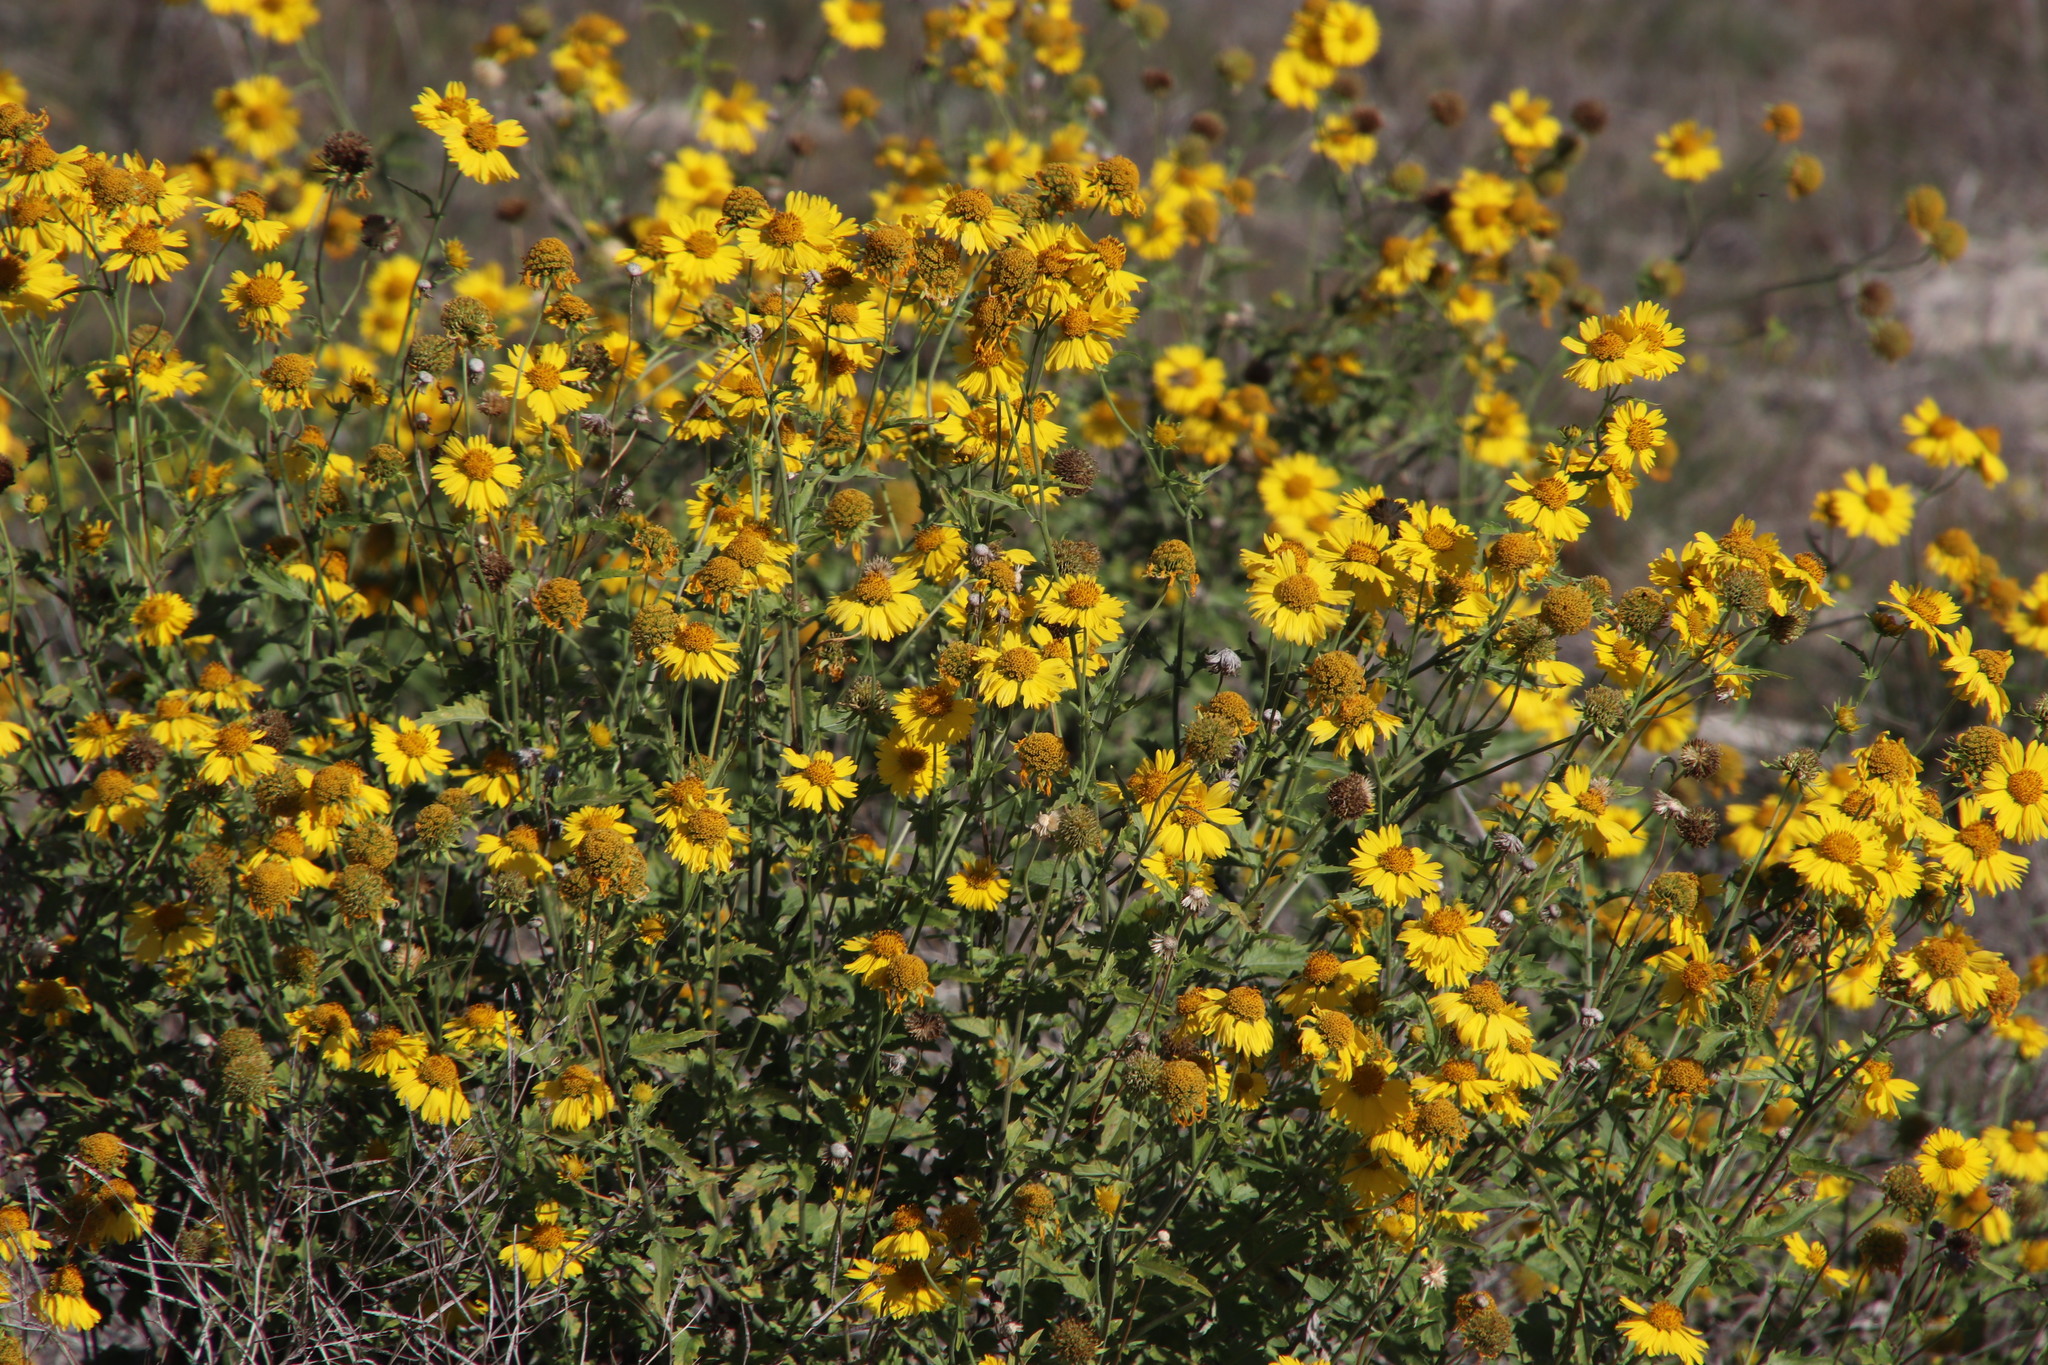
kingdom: Plantae
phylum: Tracheophyta
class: Magnoliopsida
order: Asterales
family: Asteraceae
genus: Verbesina
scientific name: Verbesina encelioides
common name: Golden crownbeard
